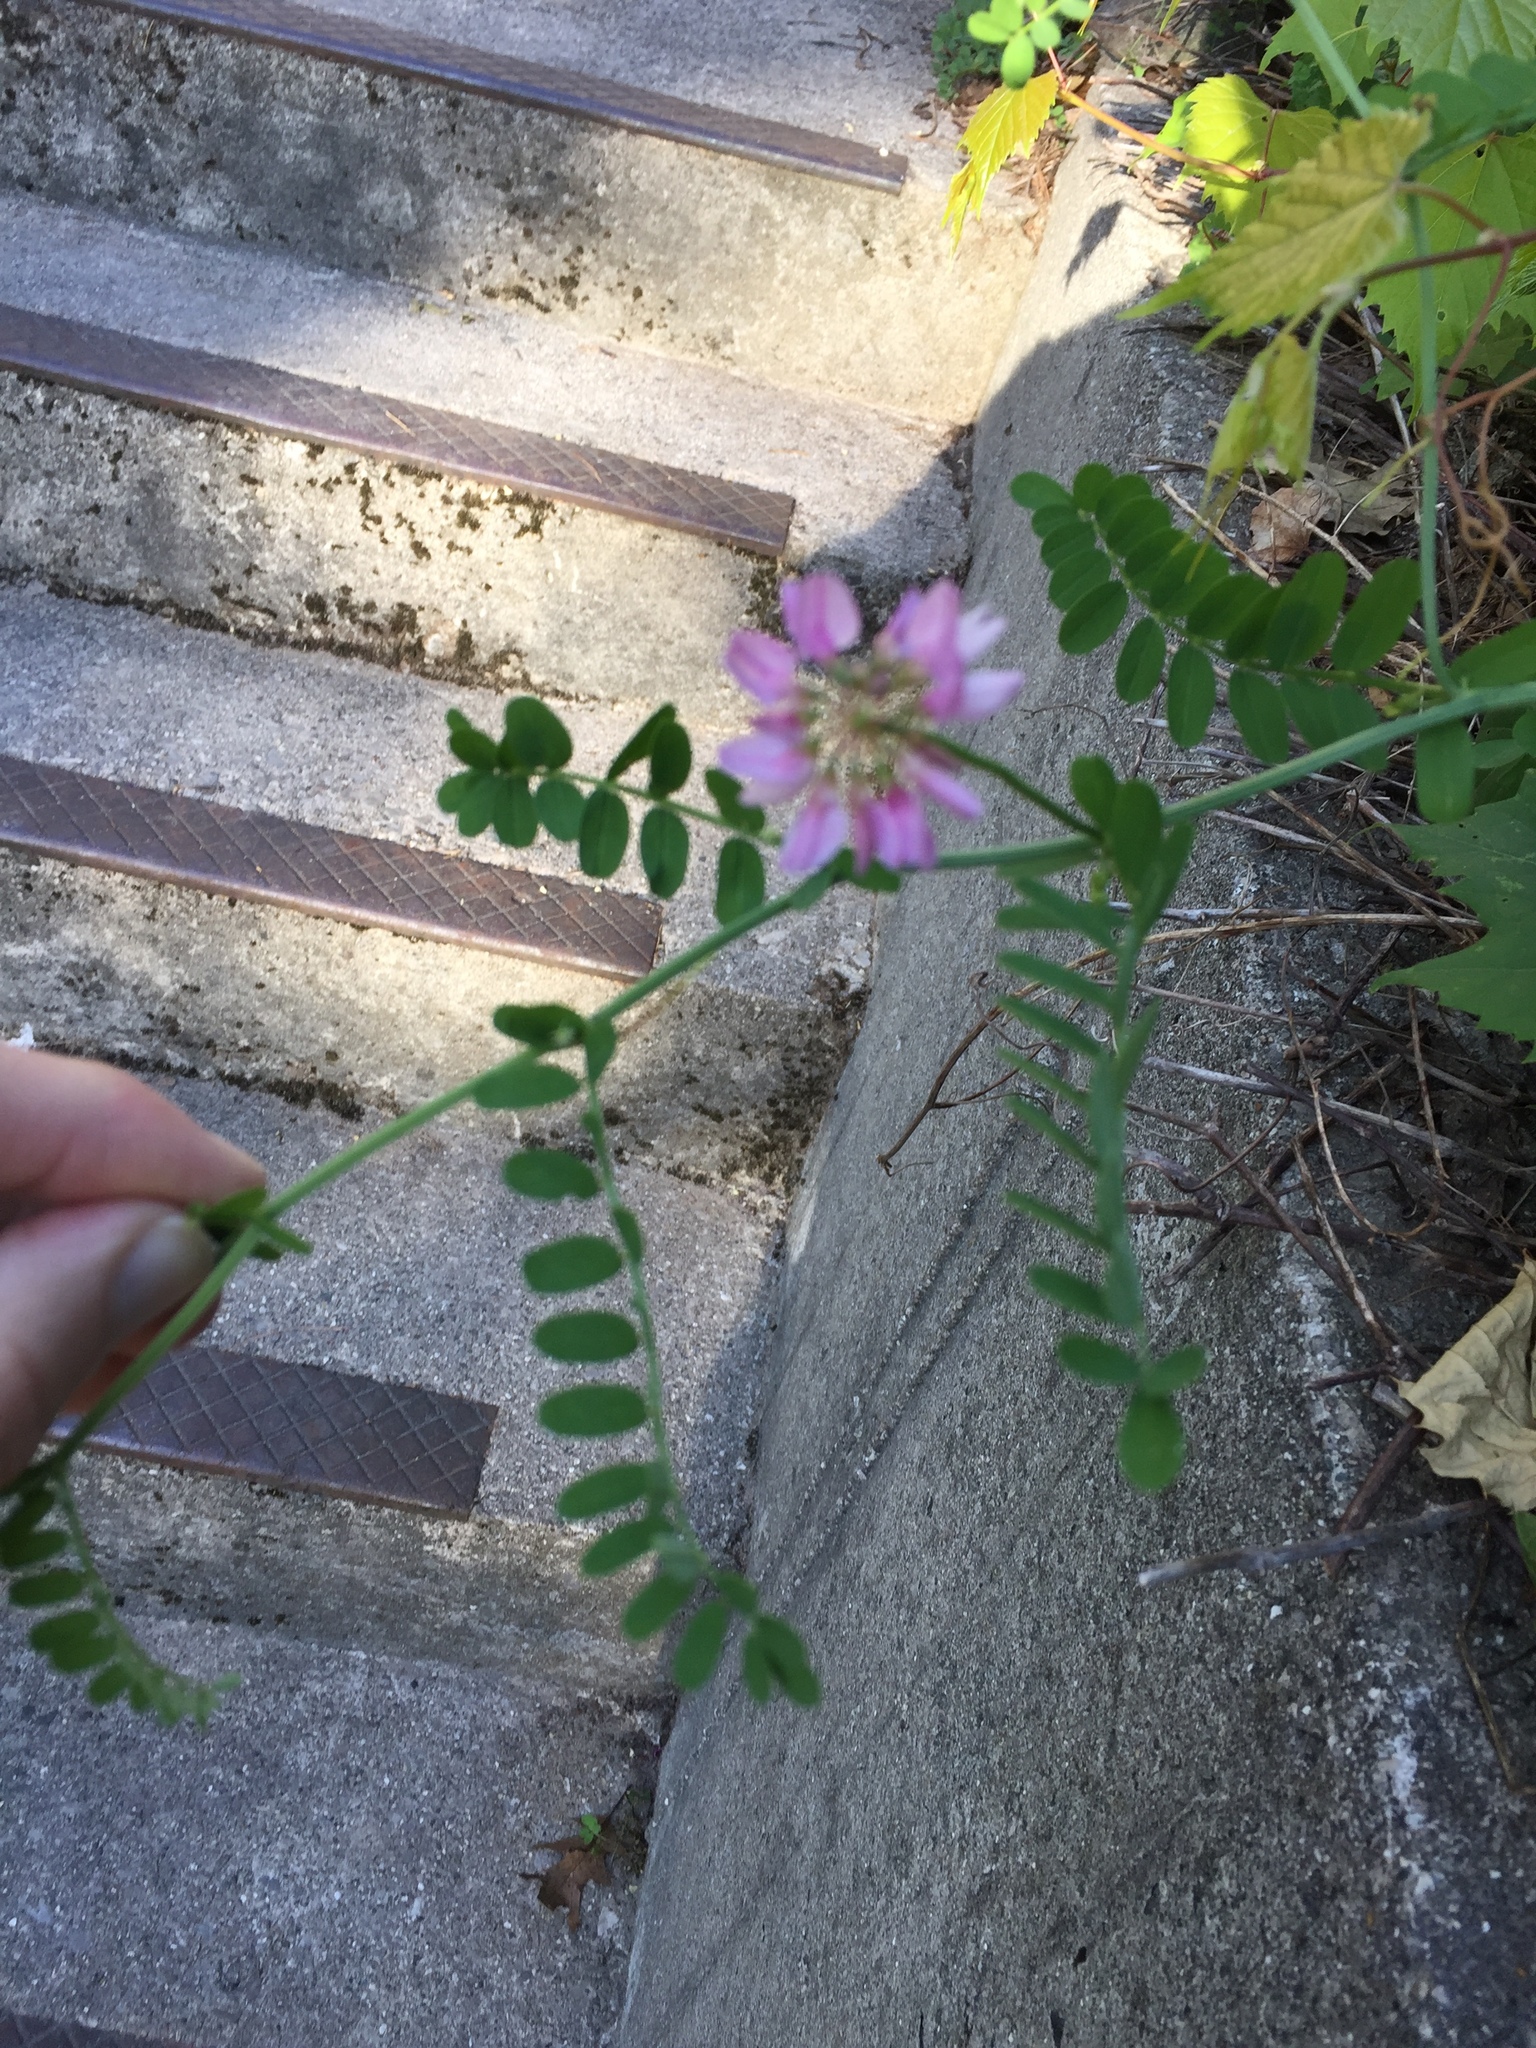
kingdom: Plantae
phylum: Tracheophyta
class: Magnoliopsida
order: Fabales
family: Fabaceae
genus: Coronilla
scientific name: Coronilla varia
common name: Crownvetch
